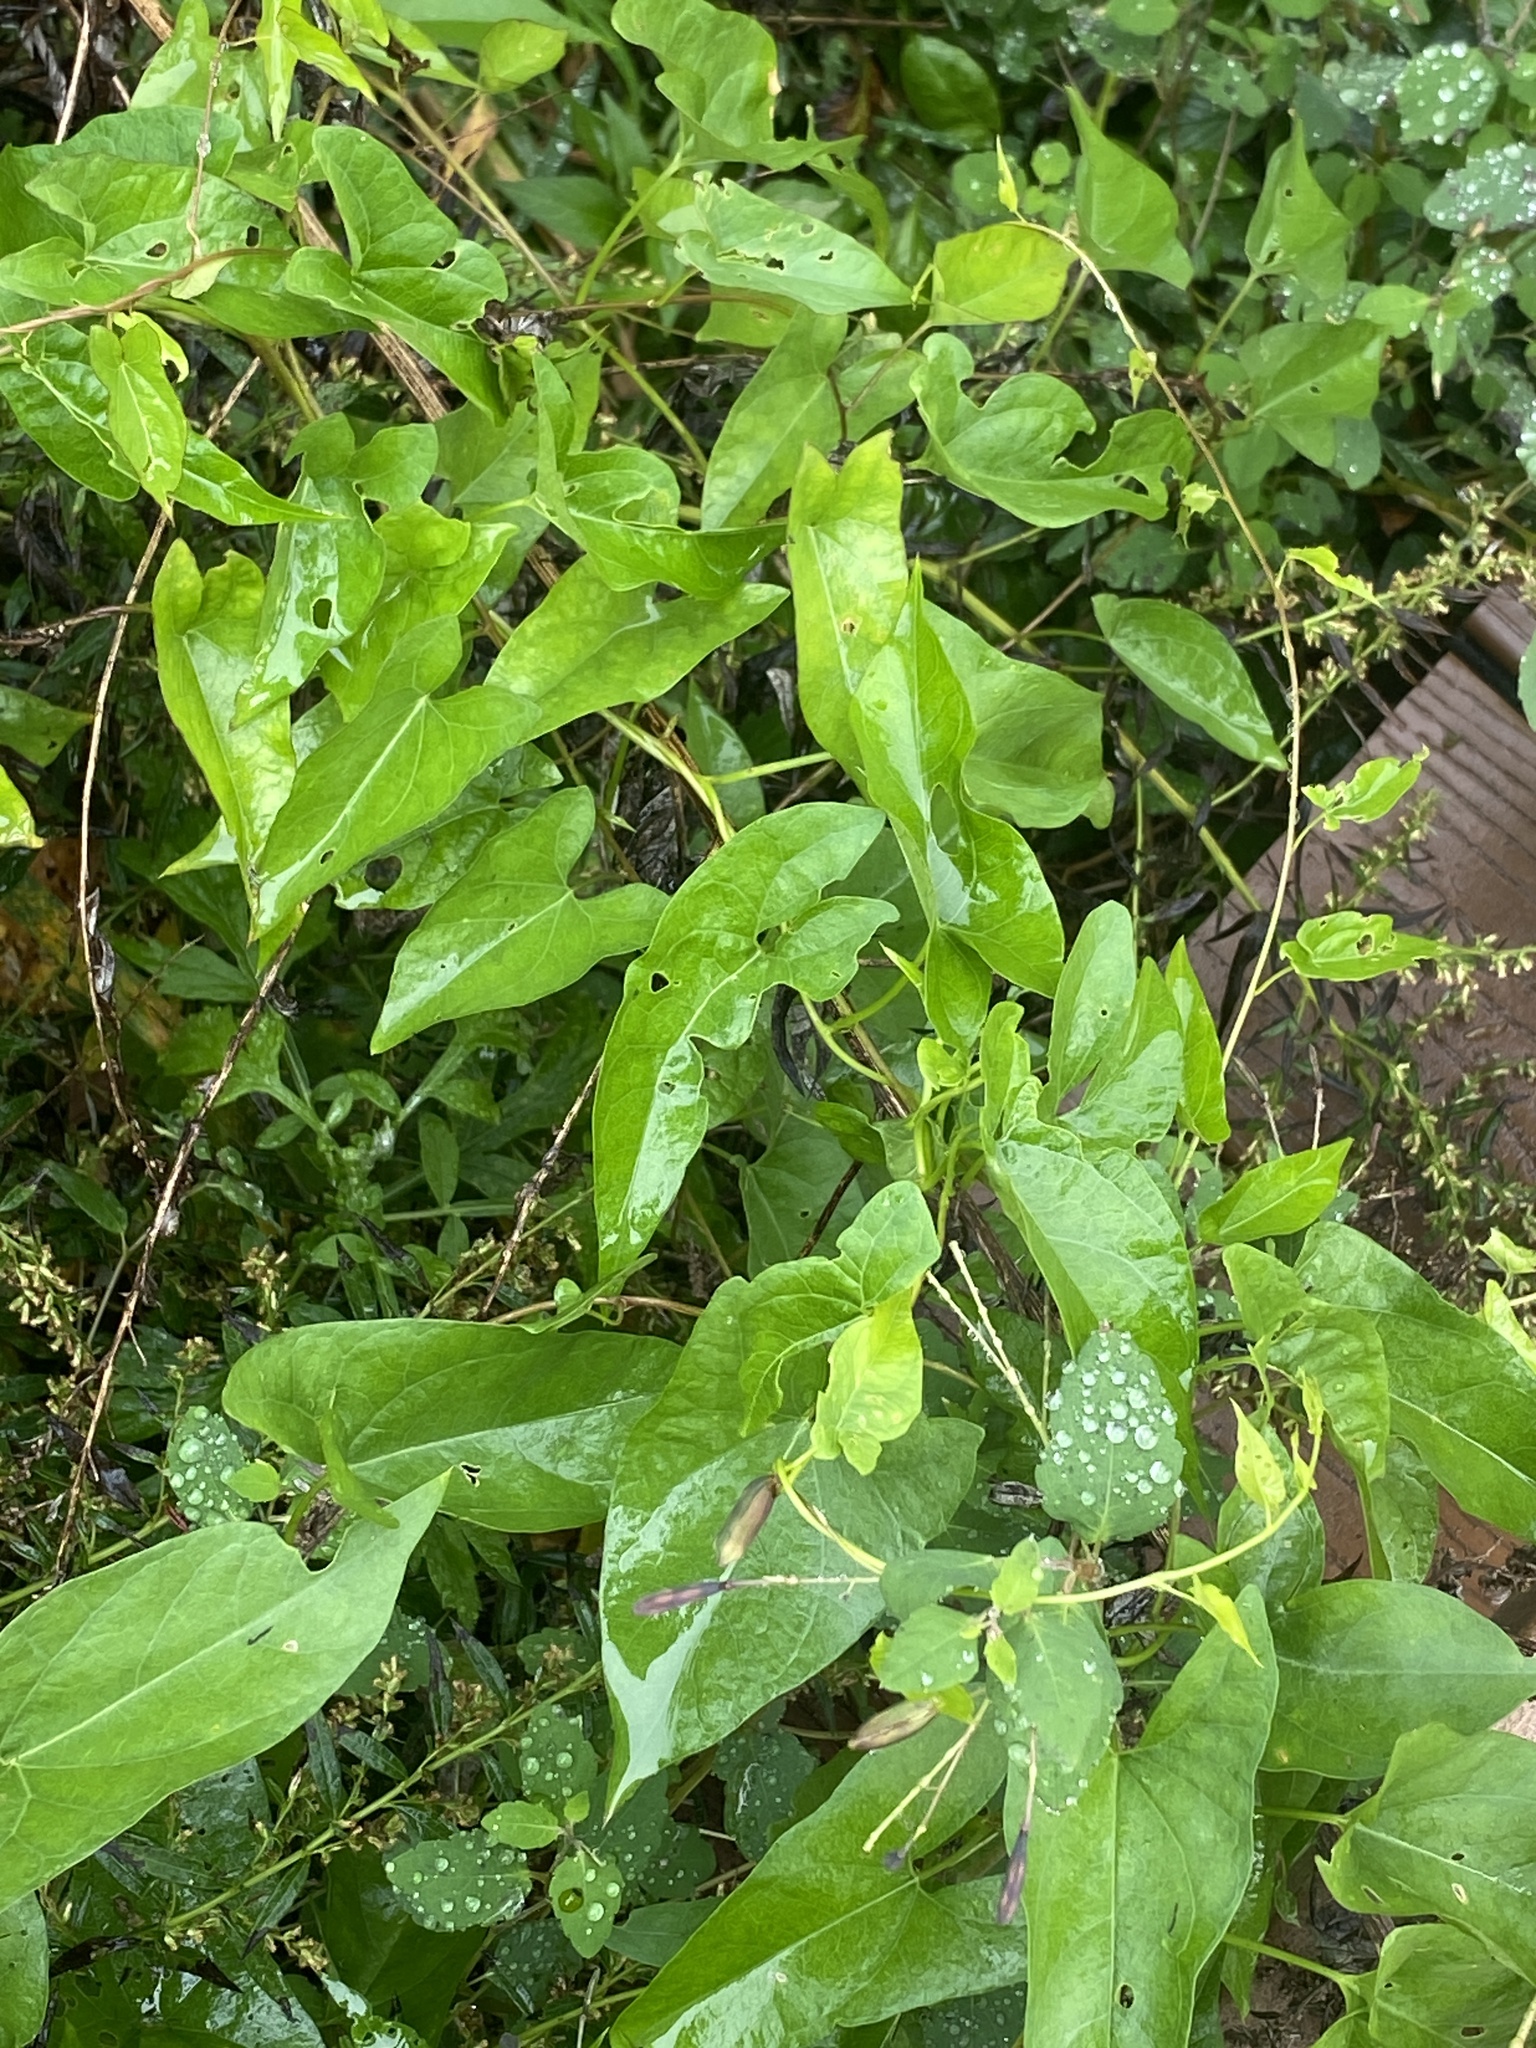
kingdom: Plantae
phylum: Tracheophyta
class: Magnoliopsida
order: Solanales
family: Convolvulaceae
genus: Calystegia
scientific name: Calystegia sepium
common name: Hedge bindweed
